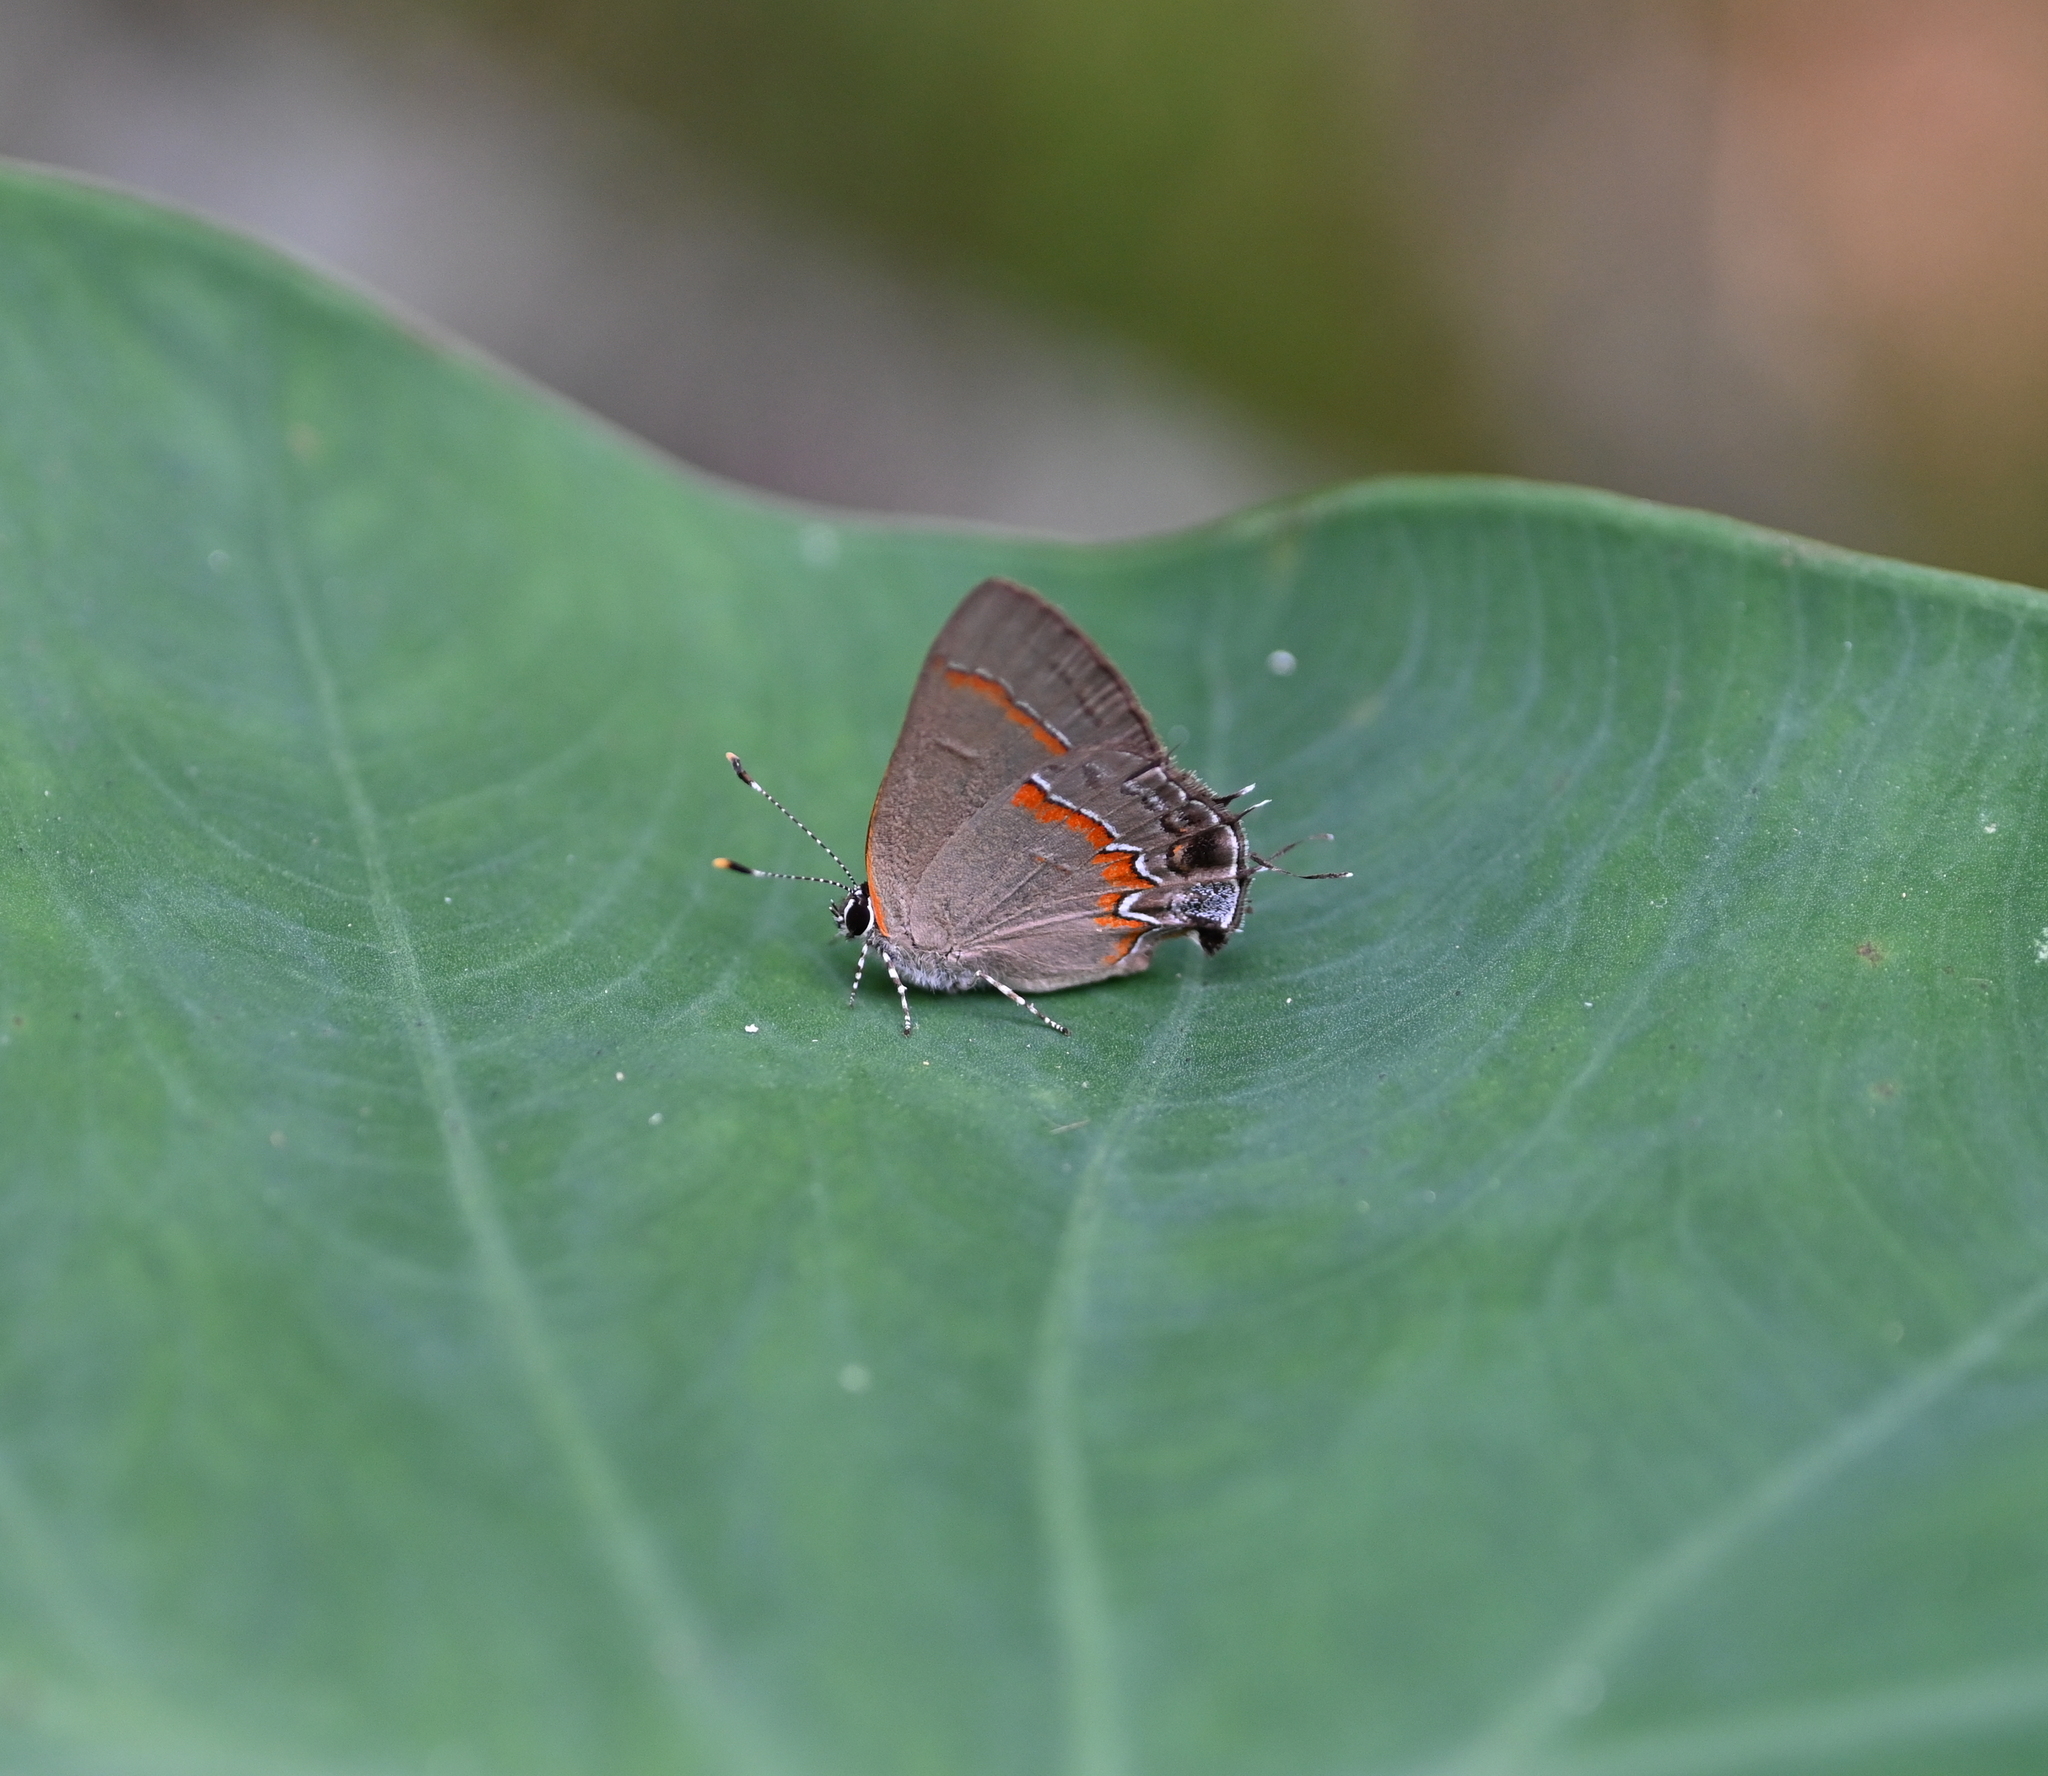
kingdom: Animalia
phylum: Arthropoda
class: Insecta
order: Lepidoptera
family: Lycaenidae
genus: Calycopis
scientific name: Calycopis cecrops
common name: Red-banded hairstreak
